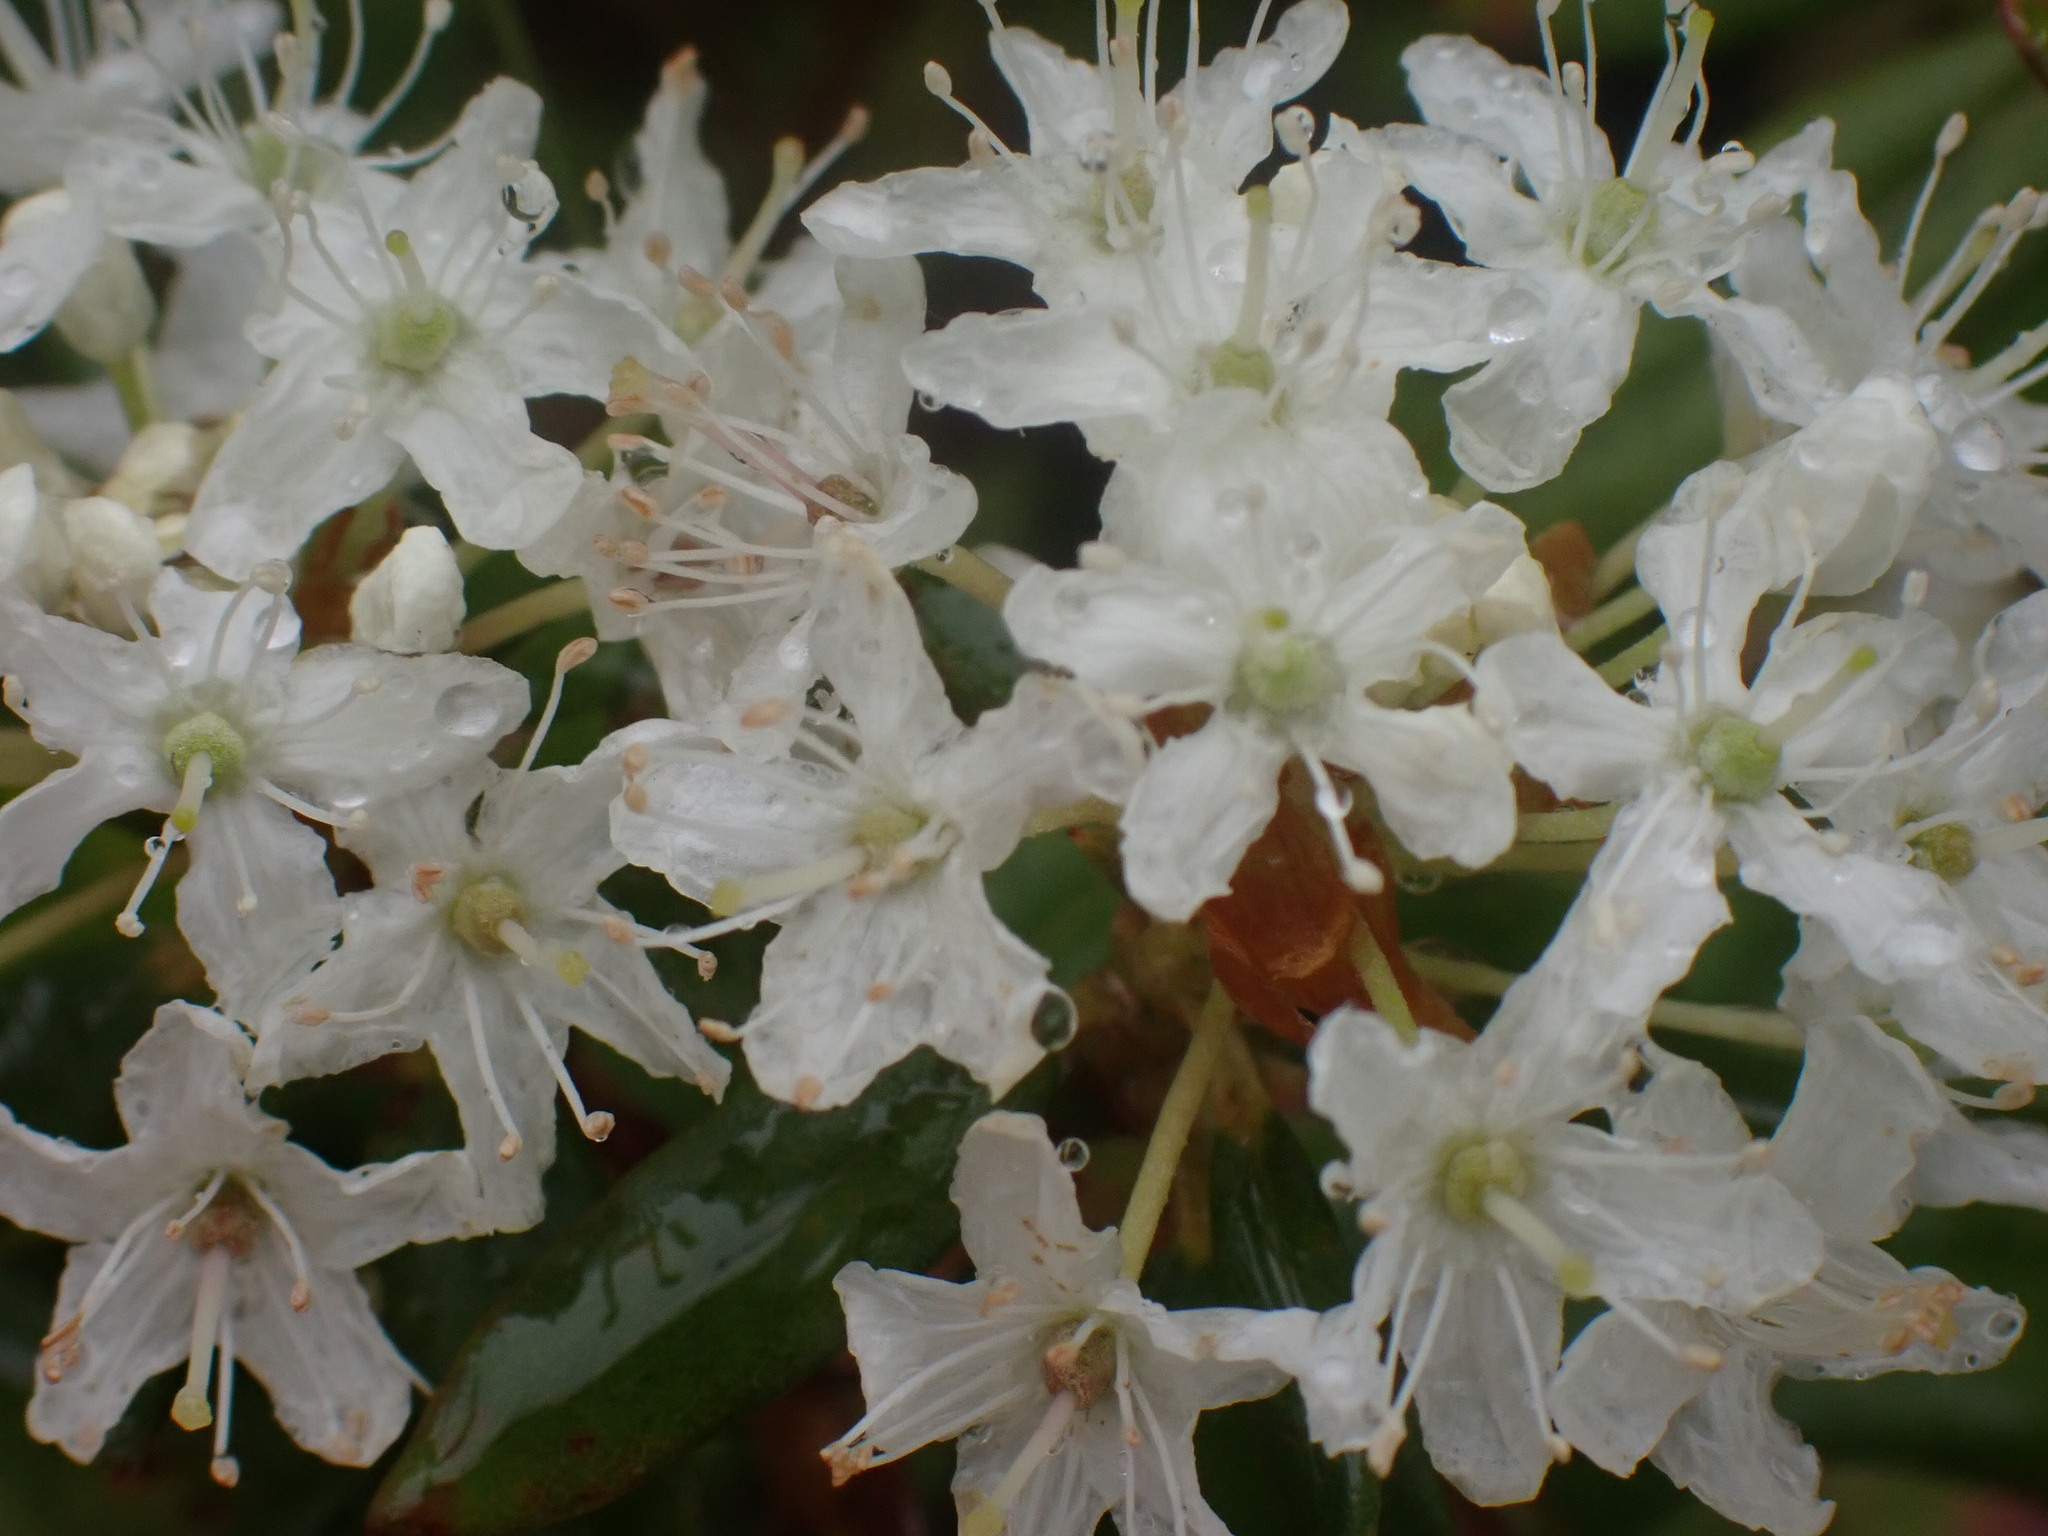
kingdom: Plantae
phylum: Tracheophyta
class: Magnoliopsida
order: Ericales
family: Ericaceae
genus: Rhododendron
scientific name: Rhododendron groenlandicum
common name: Bog labrador tea
